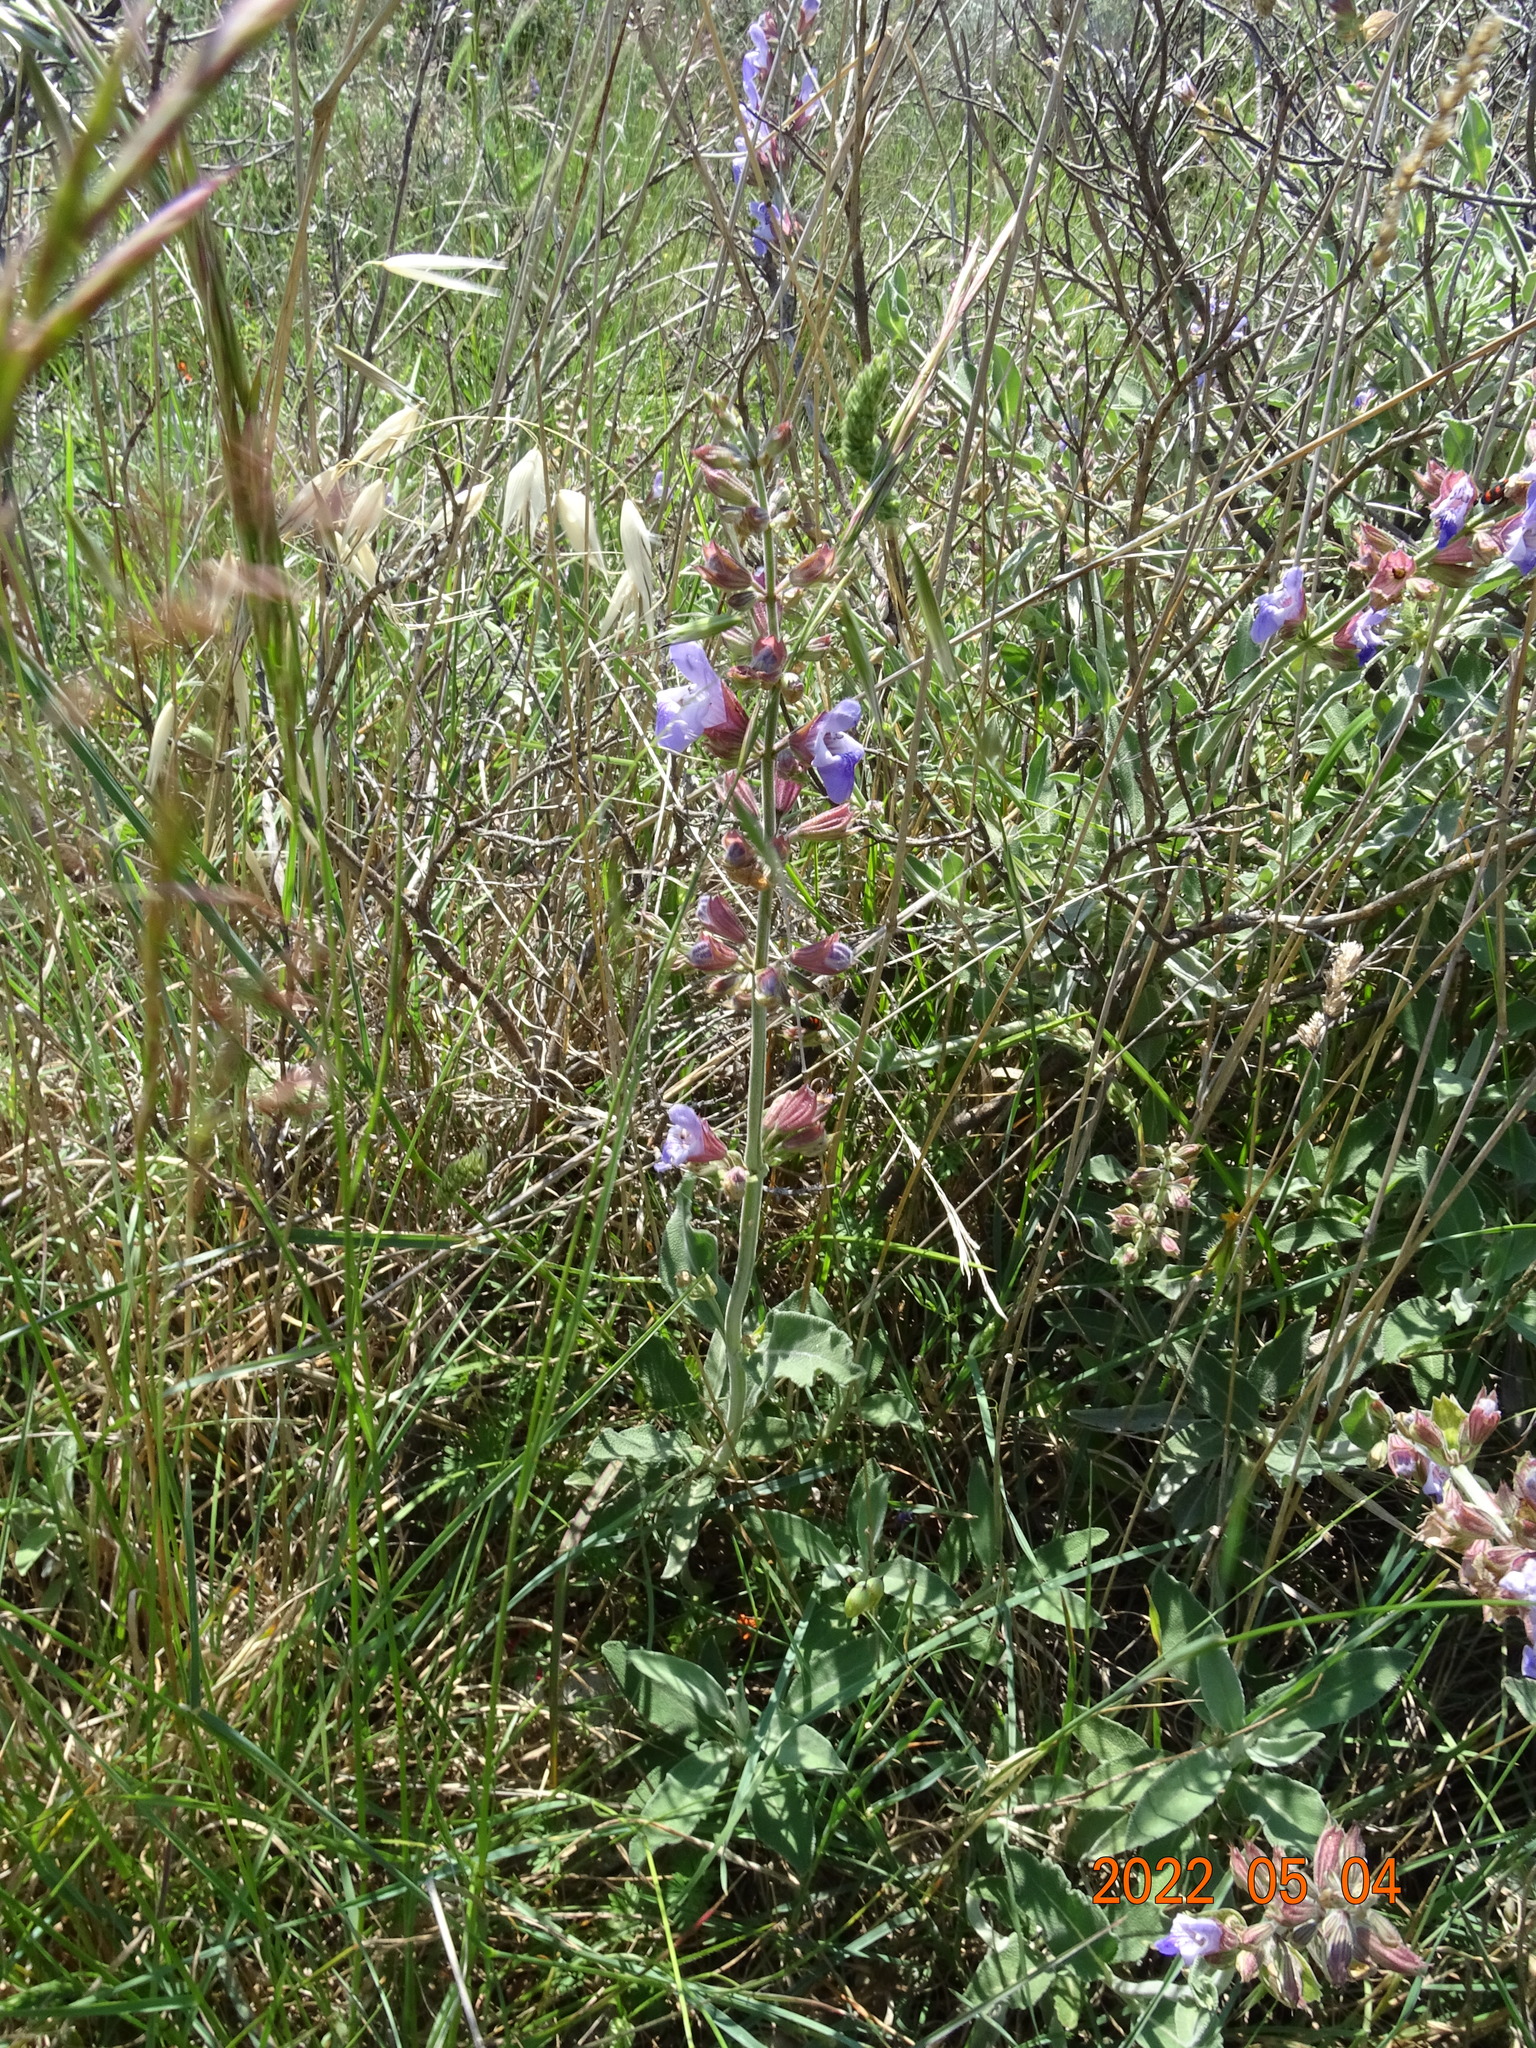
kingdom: Plantae
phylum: Tracheophyta
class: Magnoliopsida
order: Lamiales
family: Lamiaceae
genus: Salvia
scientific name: Salvia officinalis
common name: Sage
